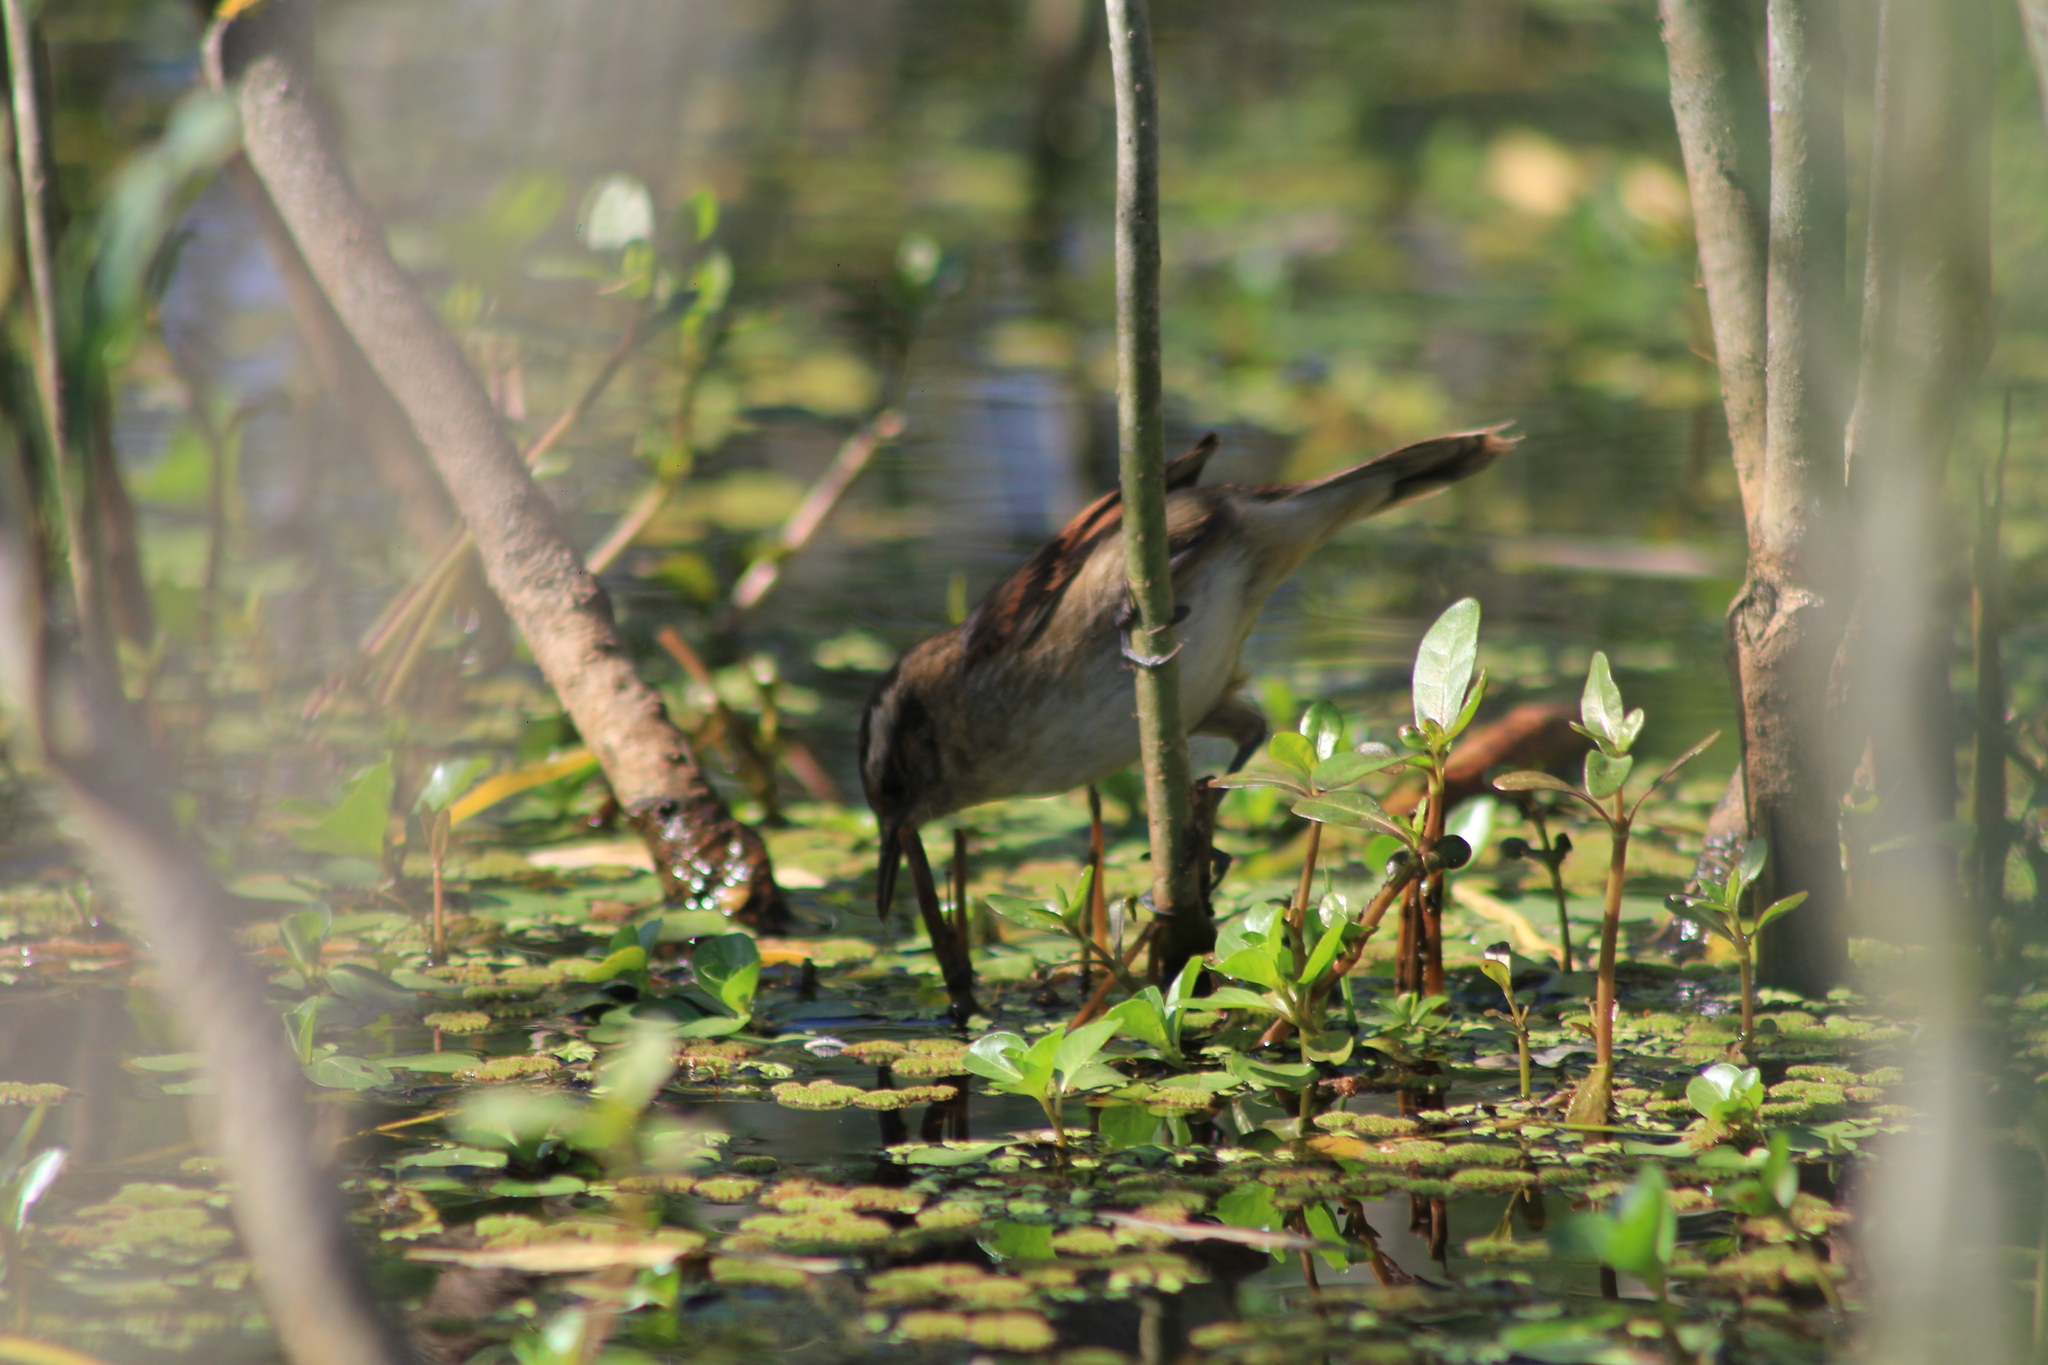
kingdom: Animalia
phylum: Chordata
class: Aves
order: Passeriformes
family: Furnariidae
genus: Phleocryptes
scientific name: Phleocryptes melanops
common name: Wren-like rushbird
